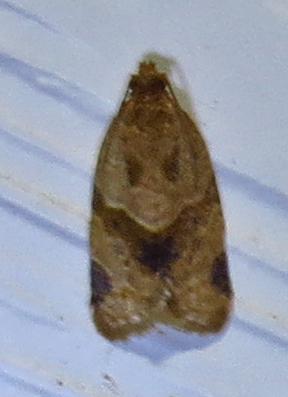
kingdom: Animalia
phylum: Arthropoda
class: Insecta
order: Lepidoptera
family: Tortricidae
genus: Clepsis
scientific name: Clepsis peritana
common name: Garden tortrix
